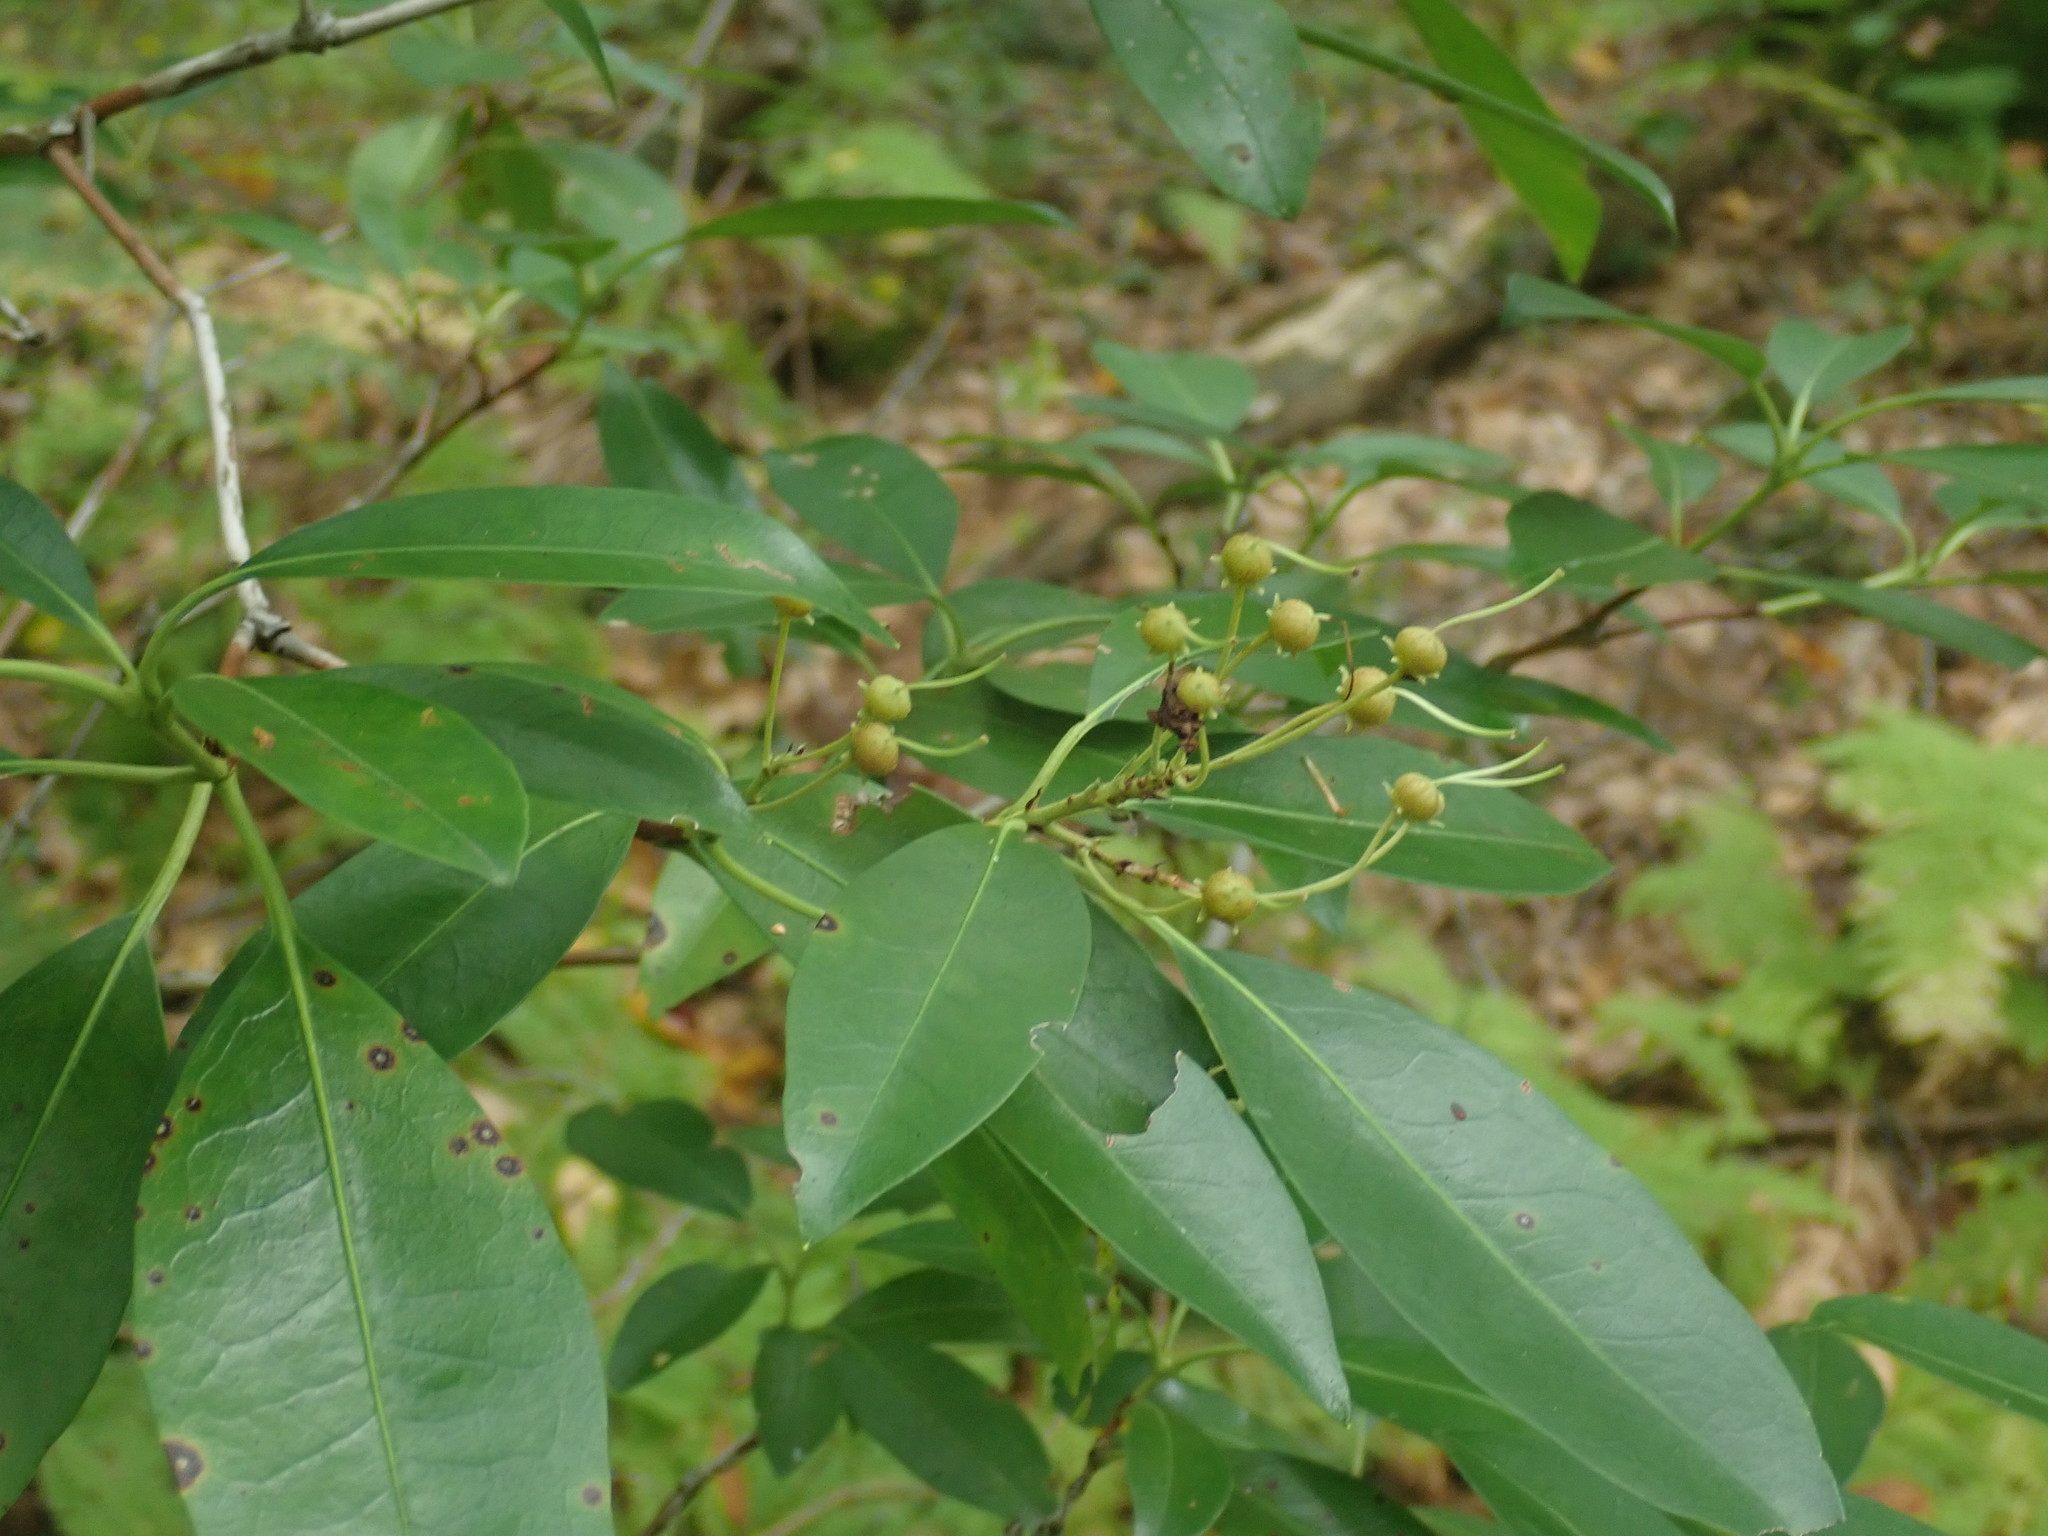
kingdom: Plantae
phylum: Tracheophyta
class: Magnoliopsida
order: Ericales
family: Ericaceae
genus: Kalmia
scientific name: Kalmia latifolia
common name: Mountain-laurel
